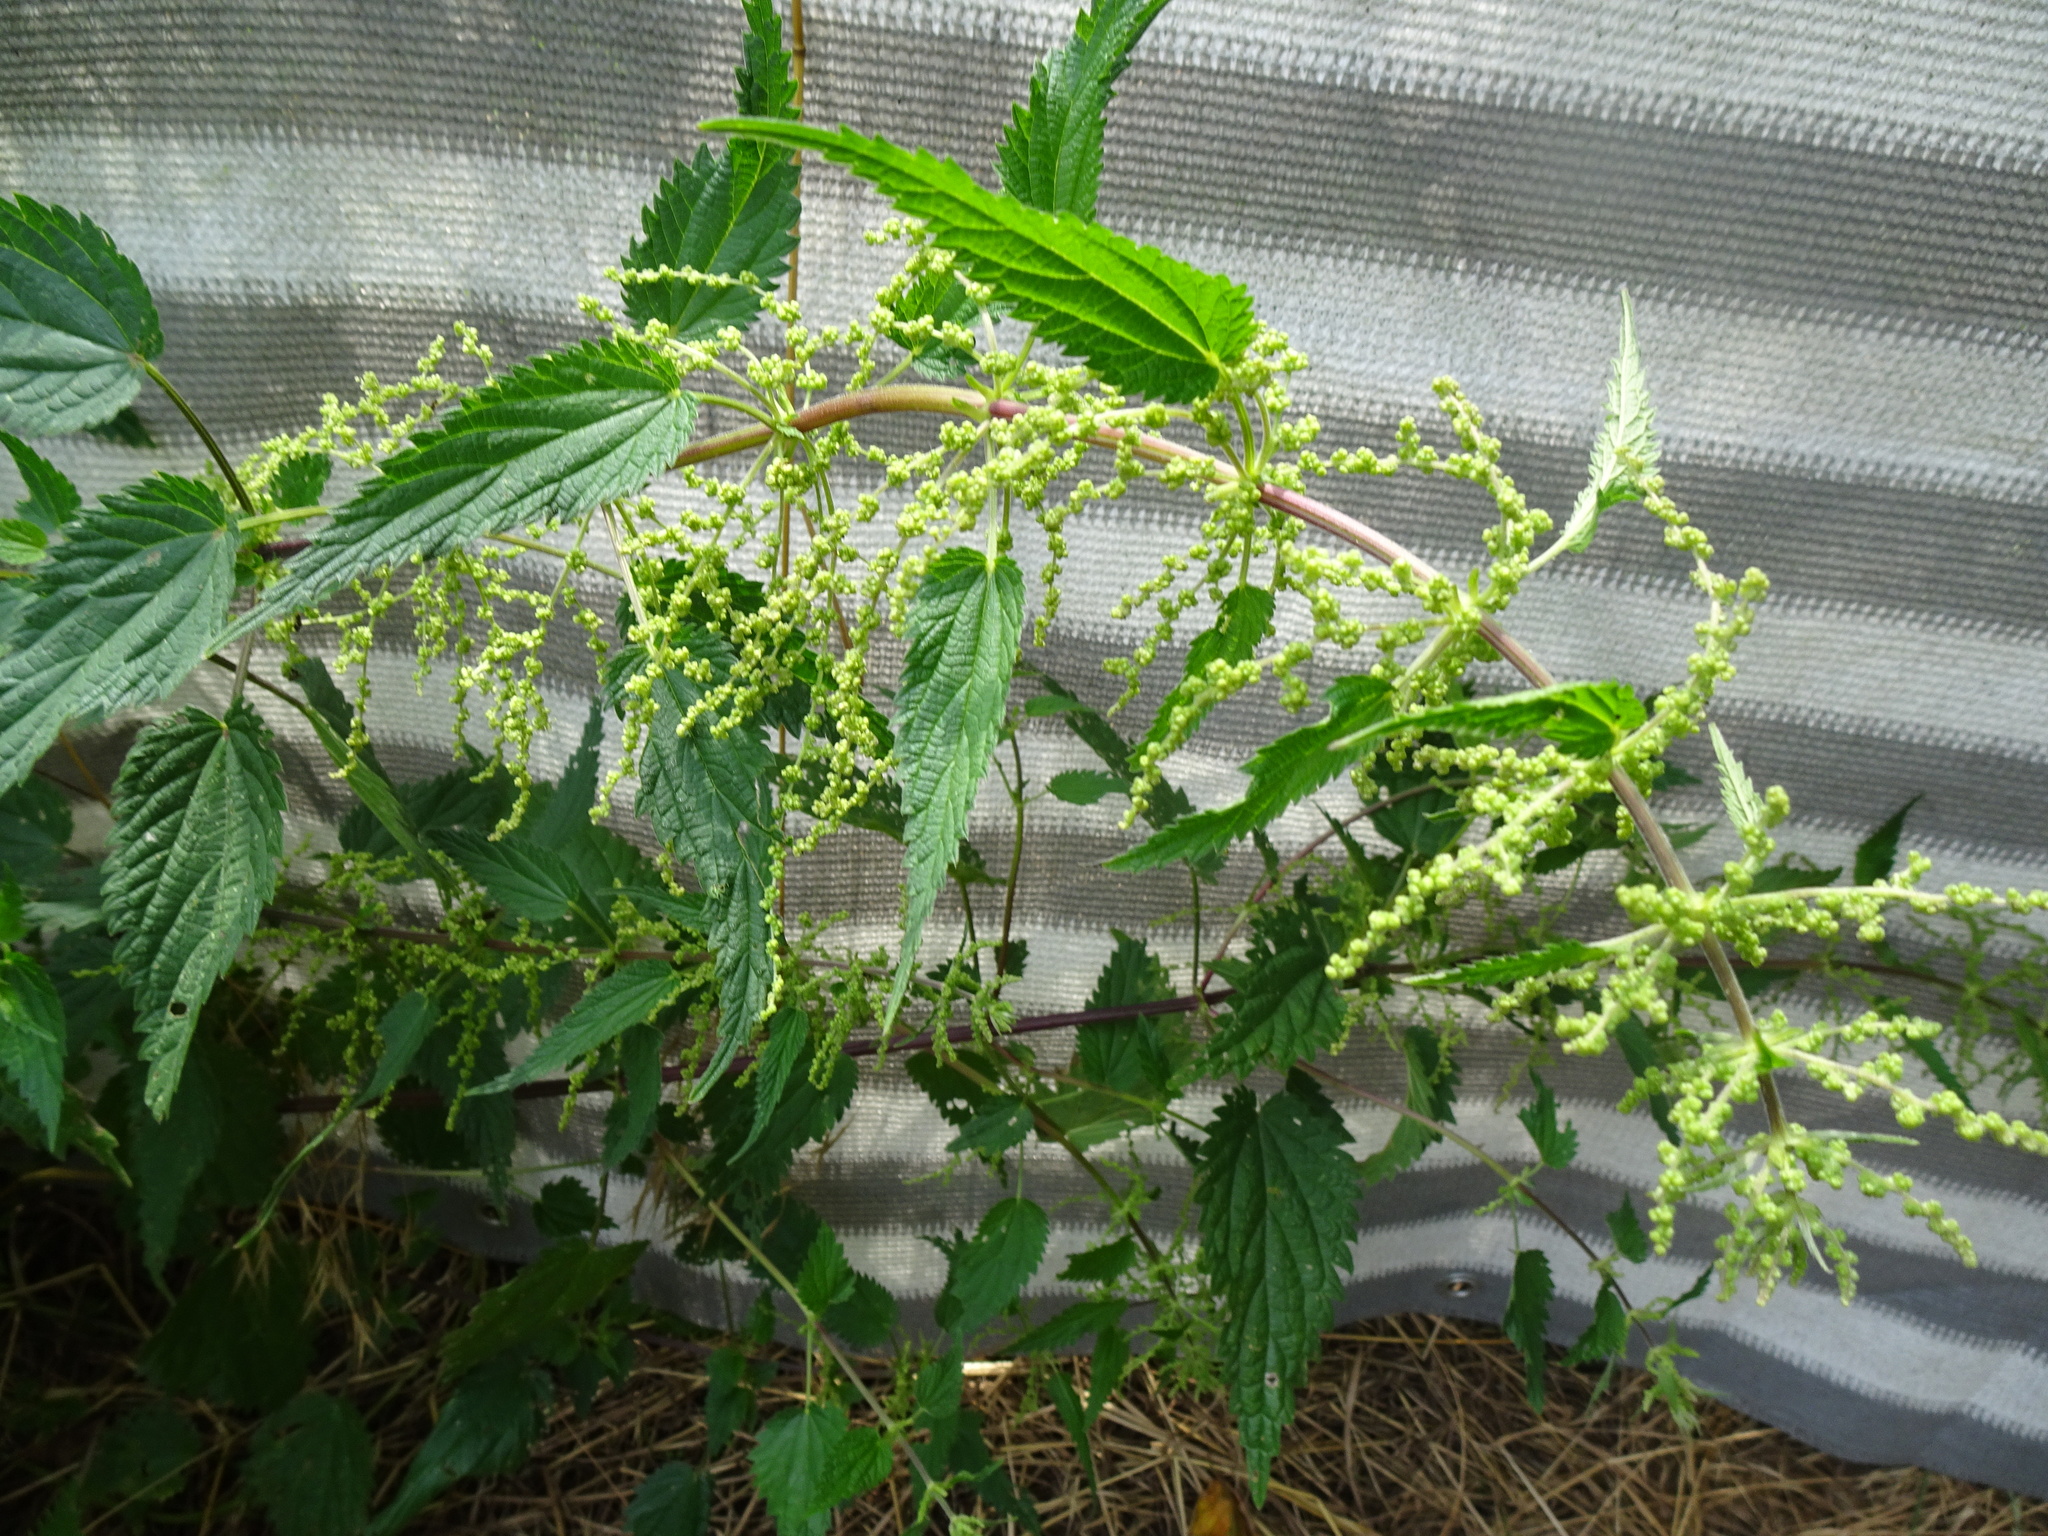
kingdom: Plantae
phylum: Tracheophyta
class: Magnoliopsida
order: Rosales
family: Urticaceae
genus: Urtica
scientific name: Urtica dioica
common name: Common nettle
